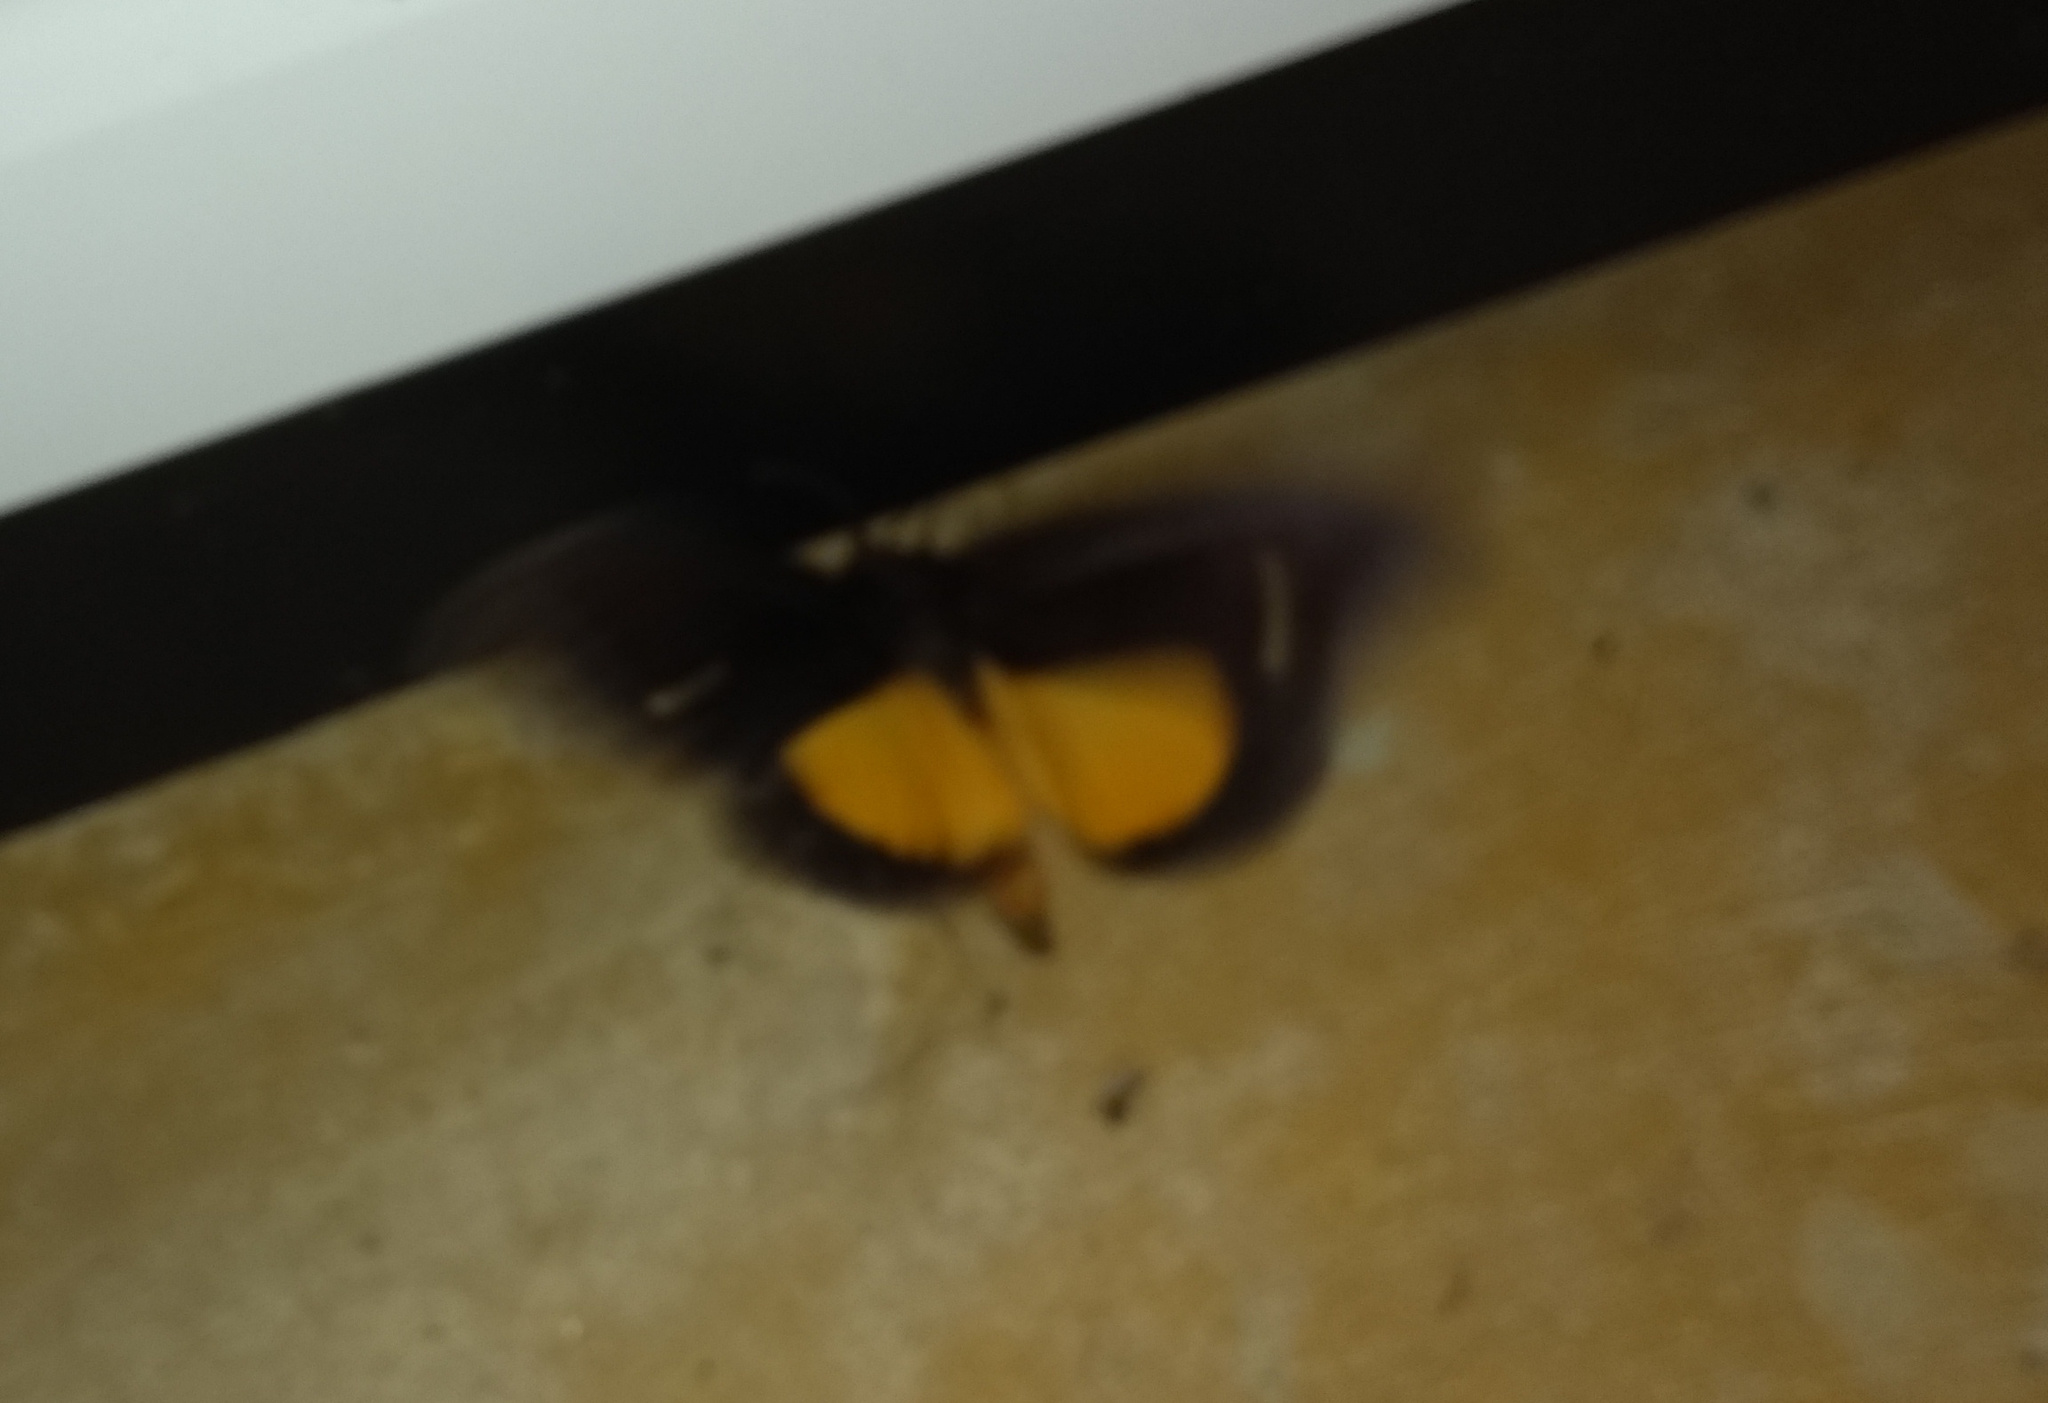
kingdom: Animalia
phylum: Arthropoda
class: Insecta
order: Lepidoptera
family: Erebidae
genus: Graphigona
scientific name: Graphigona regina
